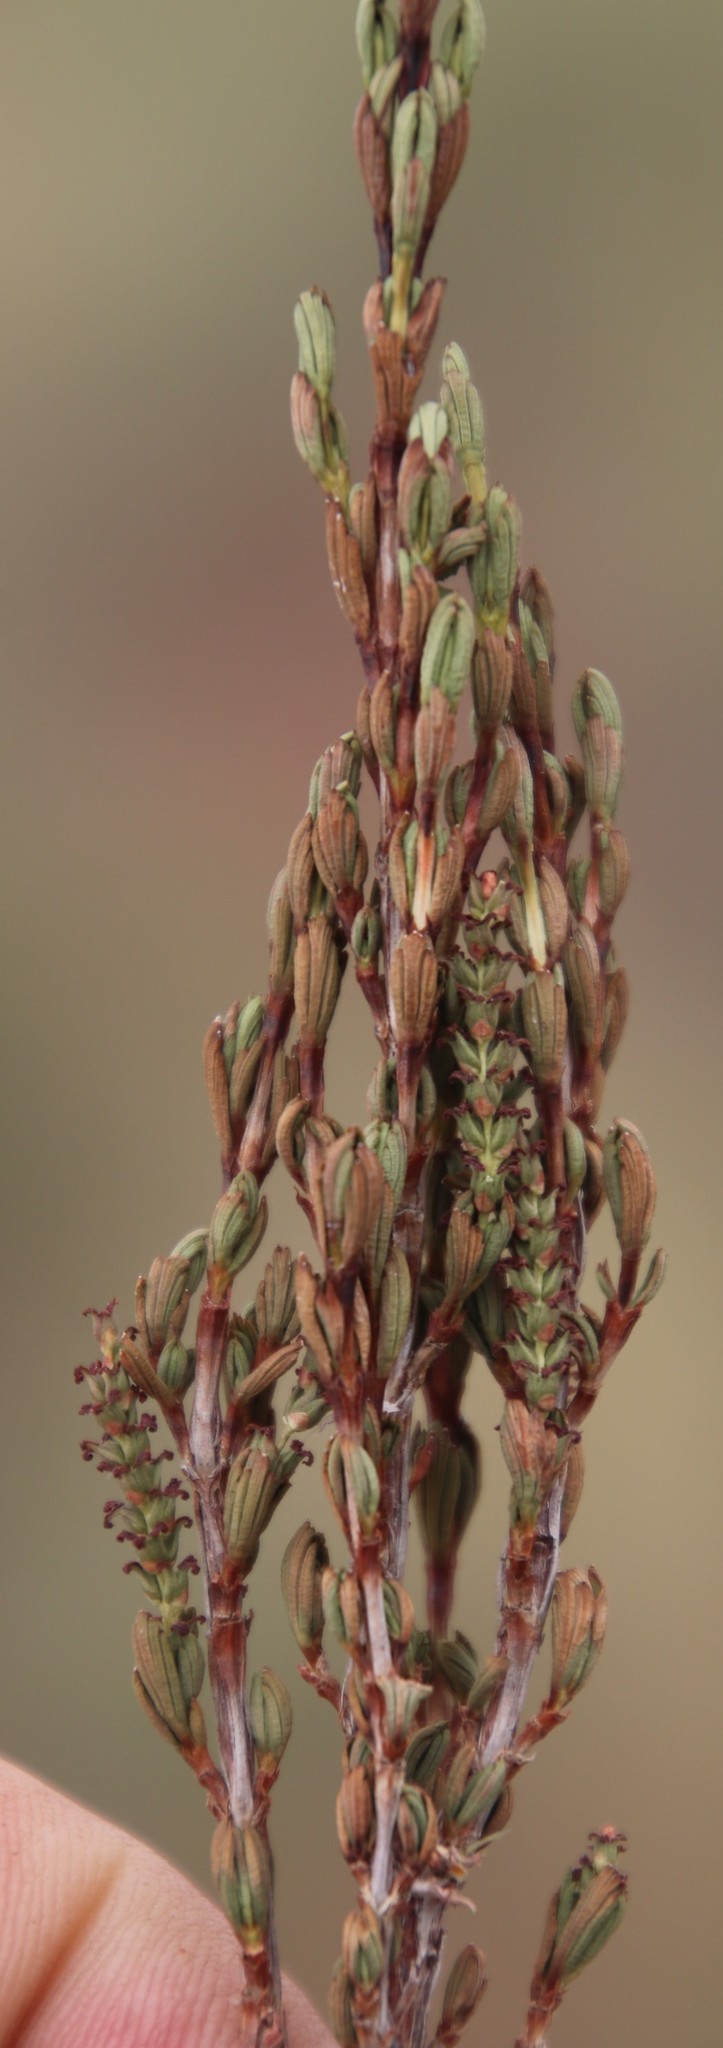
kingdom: Plantae
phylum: Tracheophyta
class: Magnoliopsida
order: Gunnerales
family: Myrothamnaceae
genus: Myrothamnus
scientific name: Myrothamnus flabellifolius
